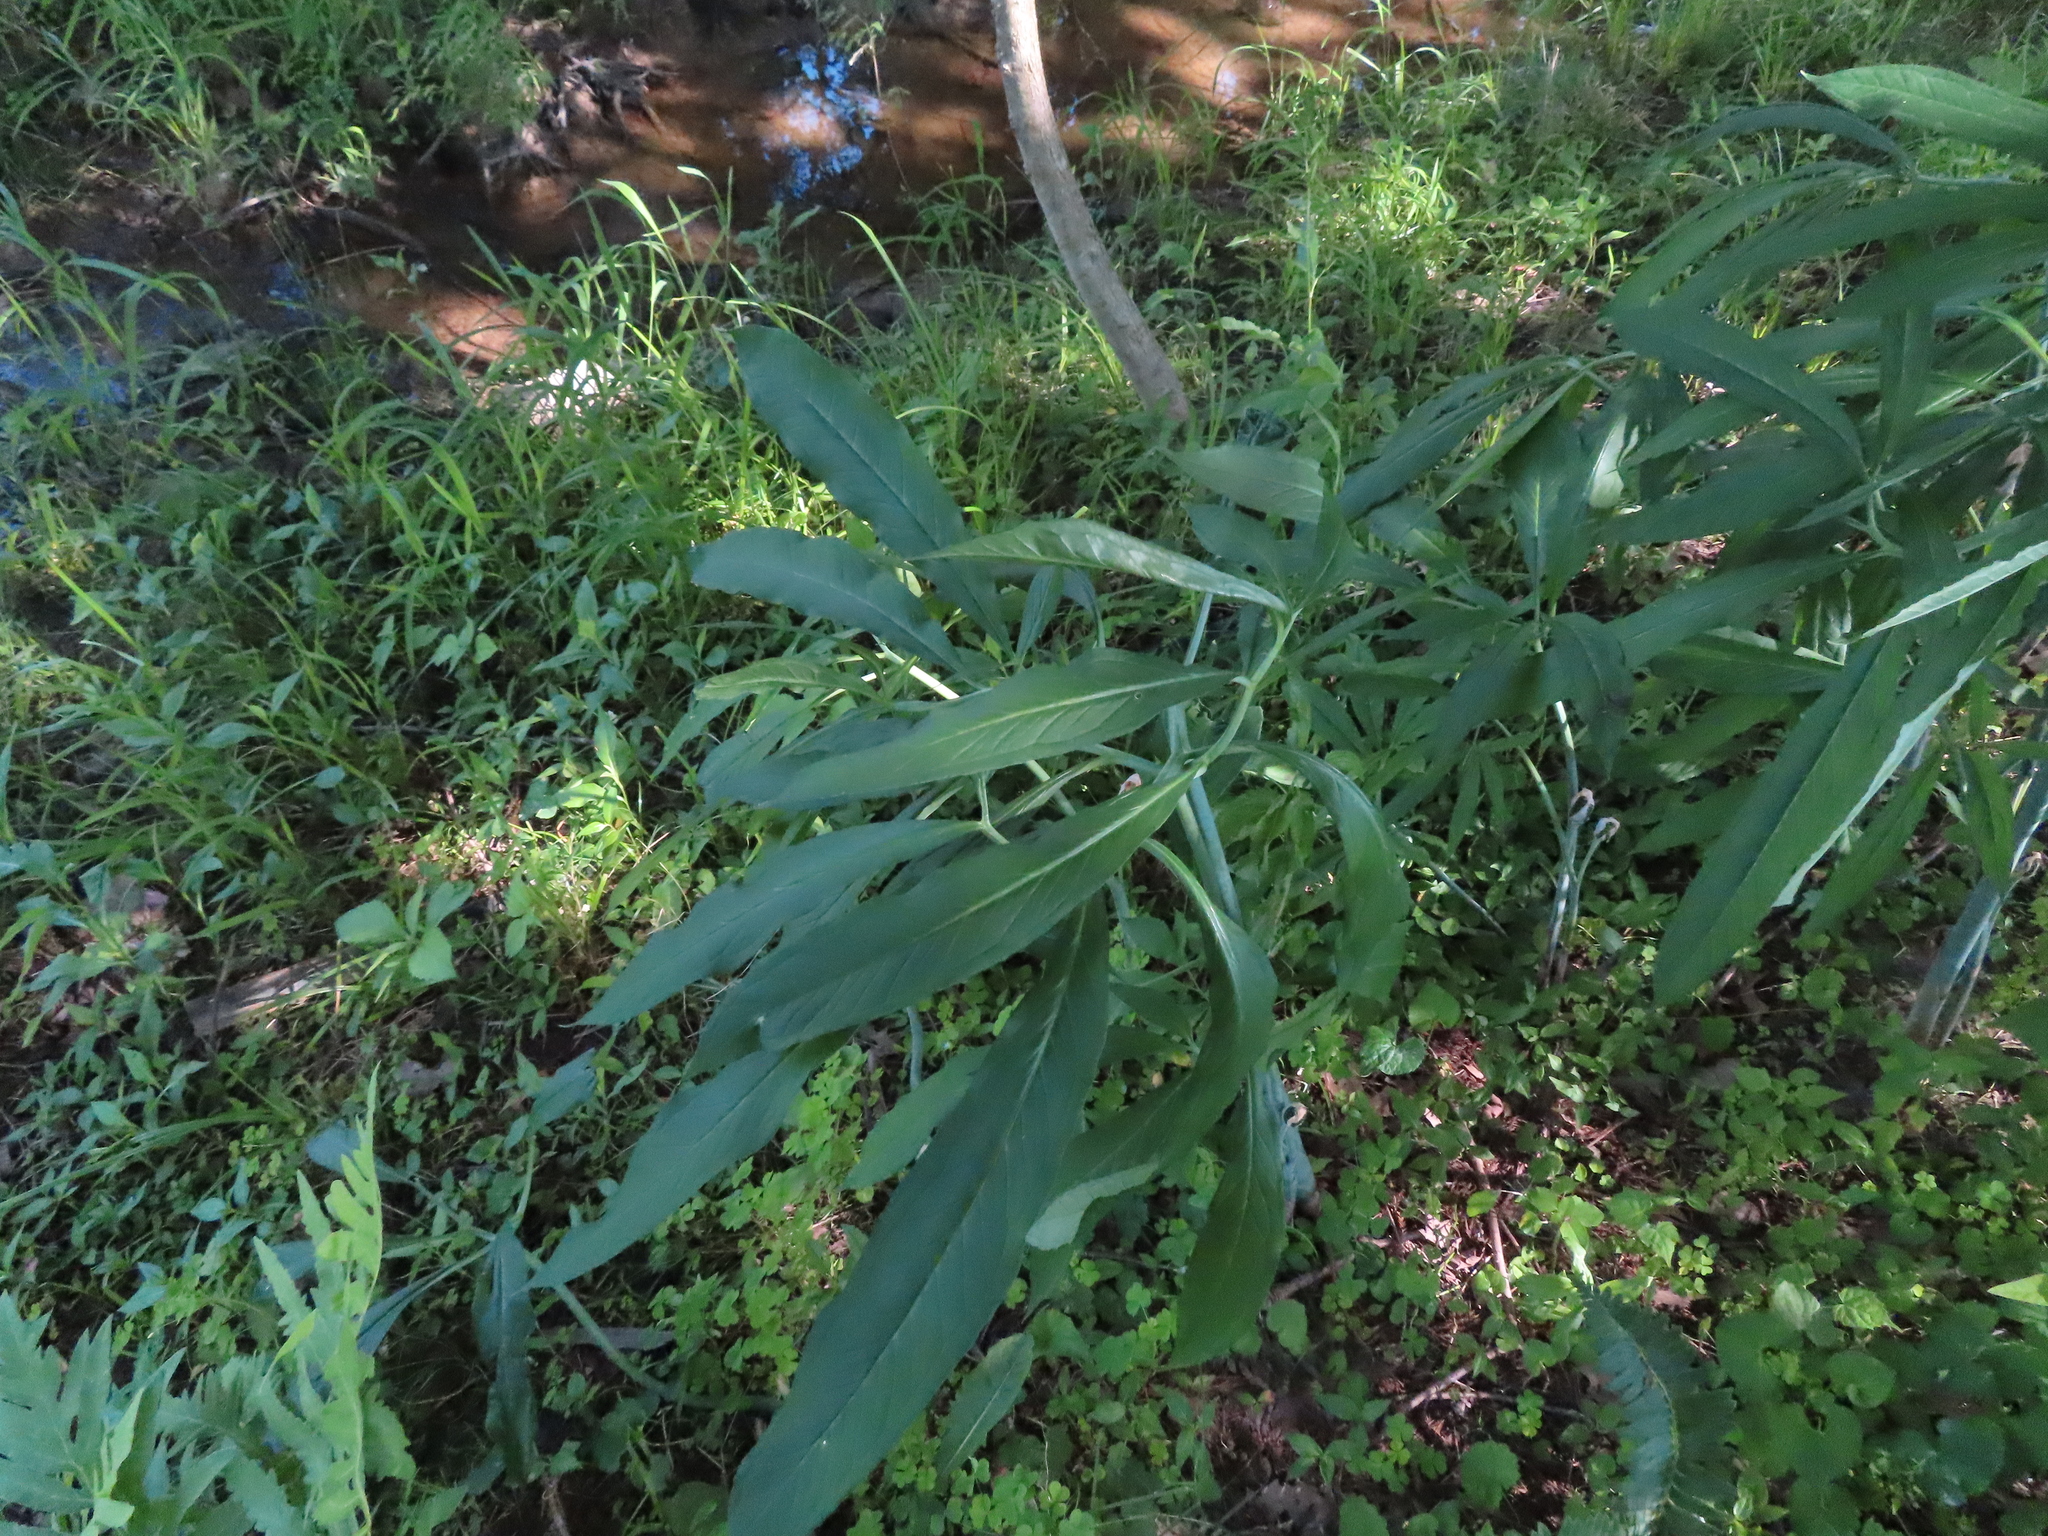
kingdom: Plantae
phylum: Tracheophyta
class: Liliopsida
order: Alismatales
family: Araceae
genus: Arisaema
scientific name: Arisaema dracontium
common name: Dragon-arum
